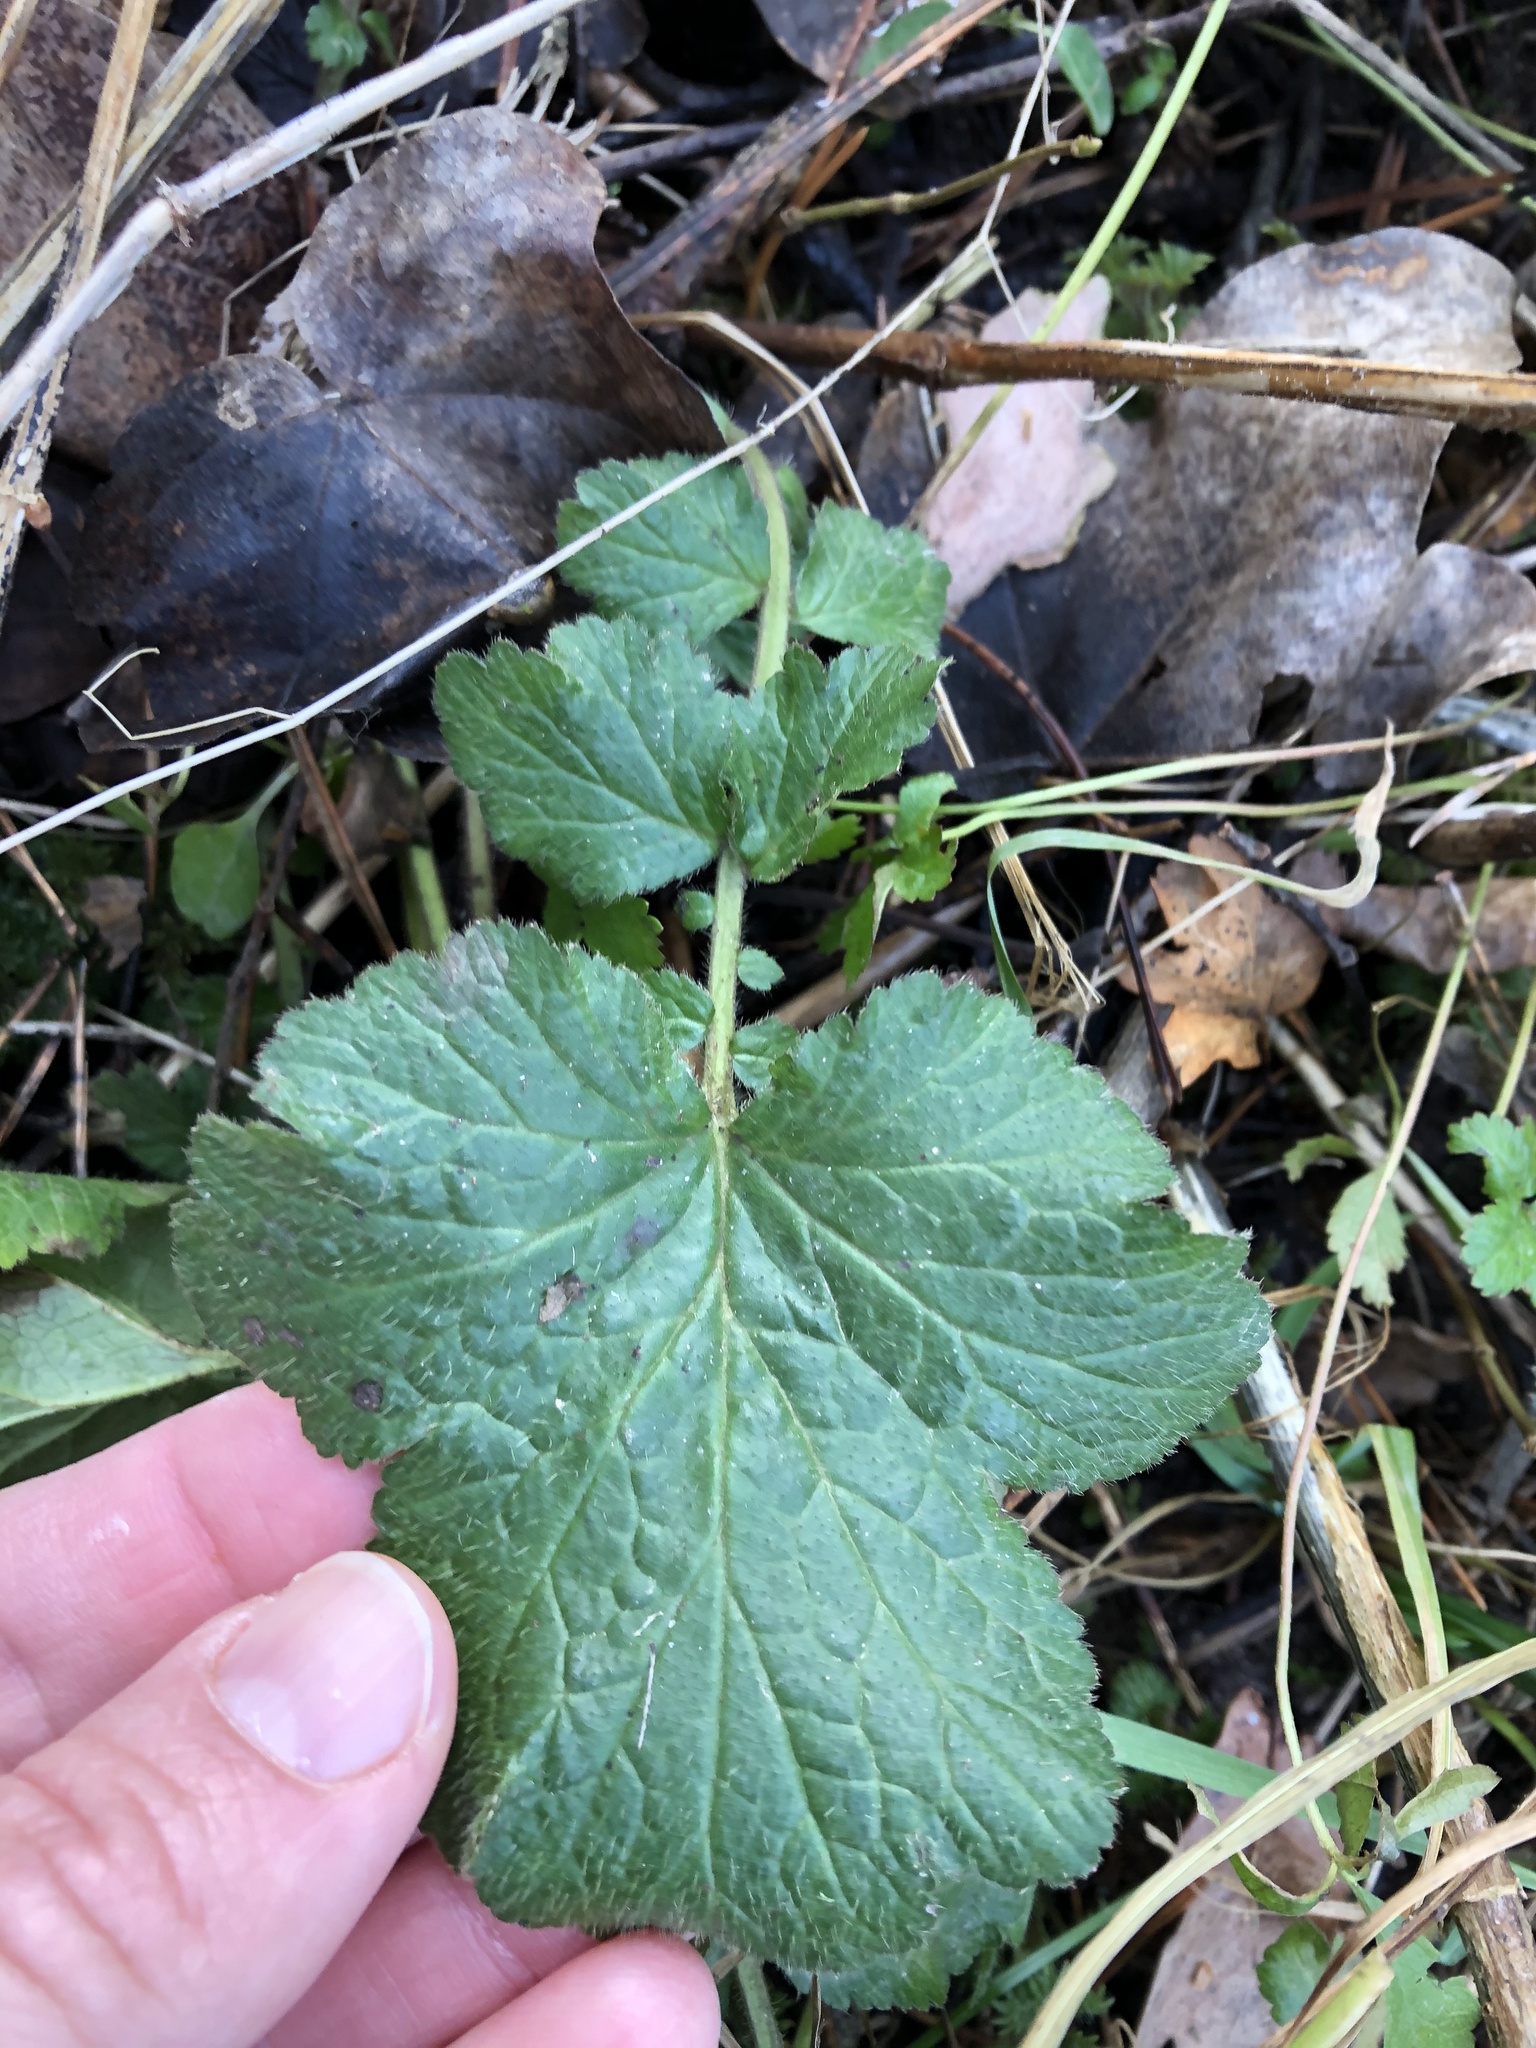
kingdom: Plantae
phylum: Tracheophyta
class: Magnoliopsida
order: Rosales
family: Rosaceae
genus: Geum
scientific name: Geum urbanum
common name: Wood avens
